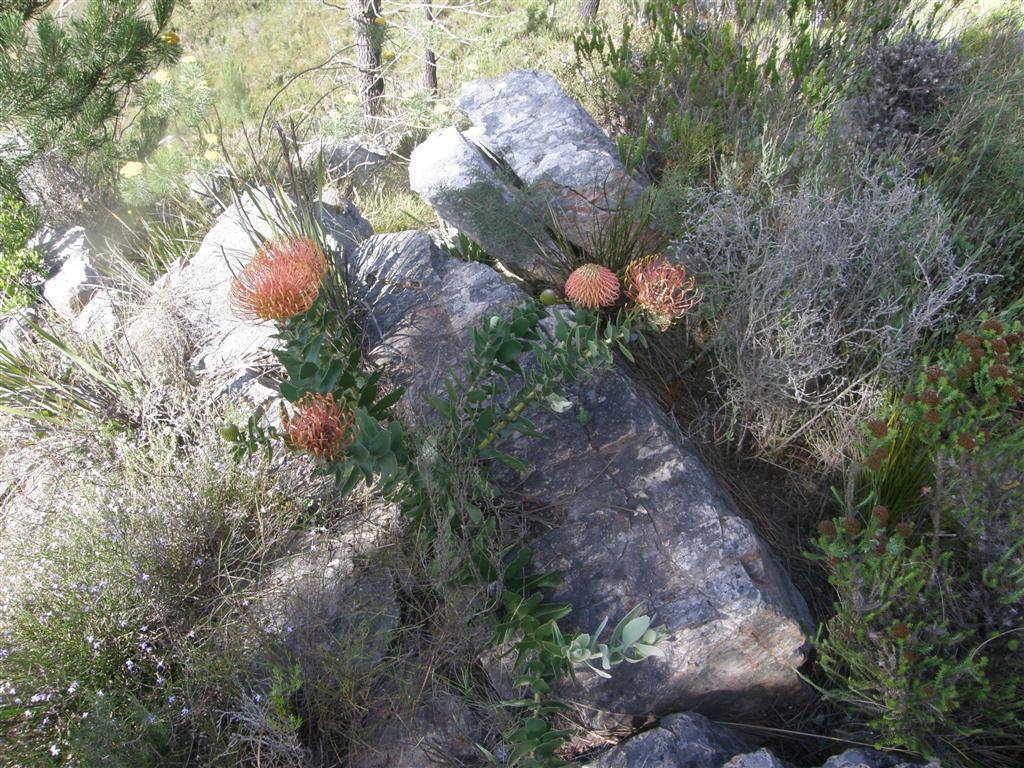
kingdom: Plantae
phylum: Tracheophyta
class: Magnoliopsida
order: Proteales
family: Proteaceae
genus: Leucospermum
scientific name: Leucospermum cordifolium
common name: Red pincushion-protea
